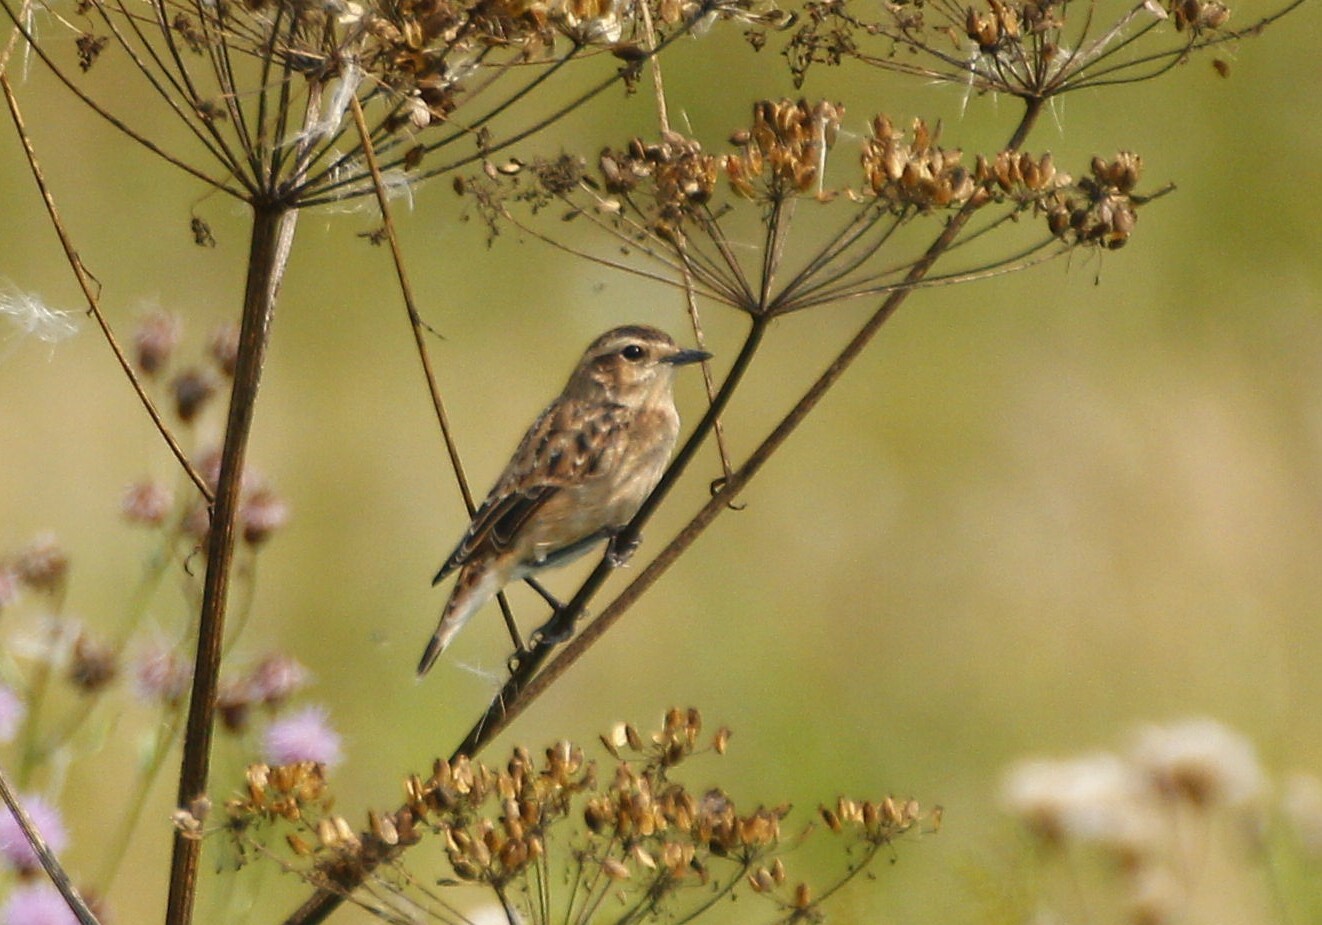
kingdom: Animalia
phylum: Chordata
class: Aves
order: Passeriformes
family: Muscicapidae
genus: Saxicola
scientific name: Saxicola rubetra
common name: Whinchat
